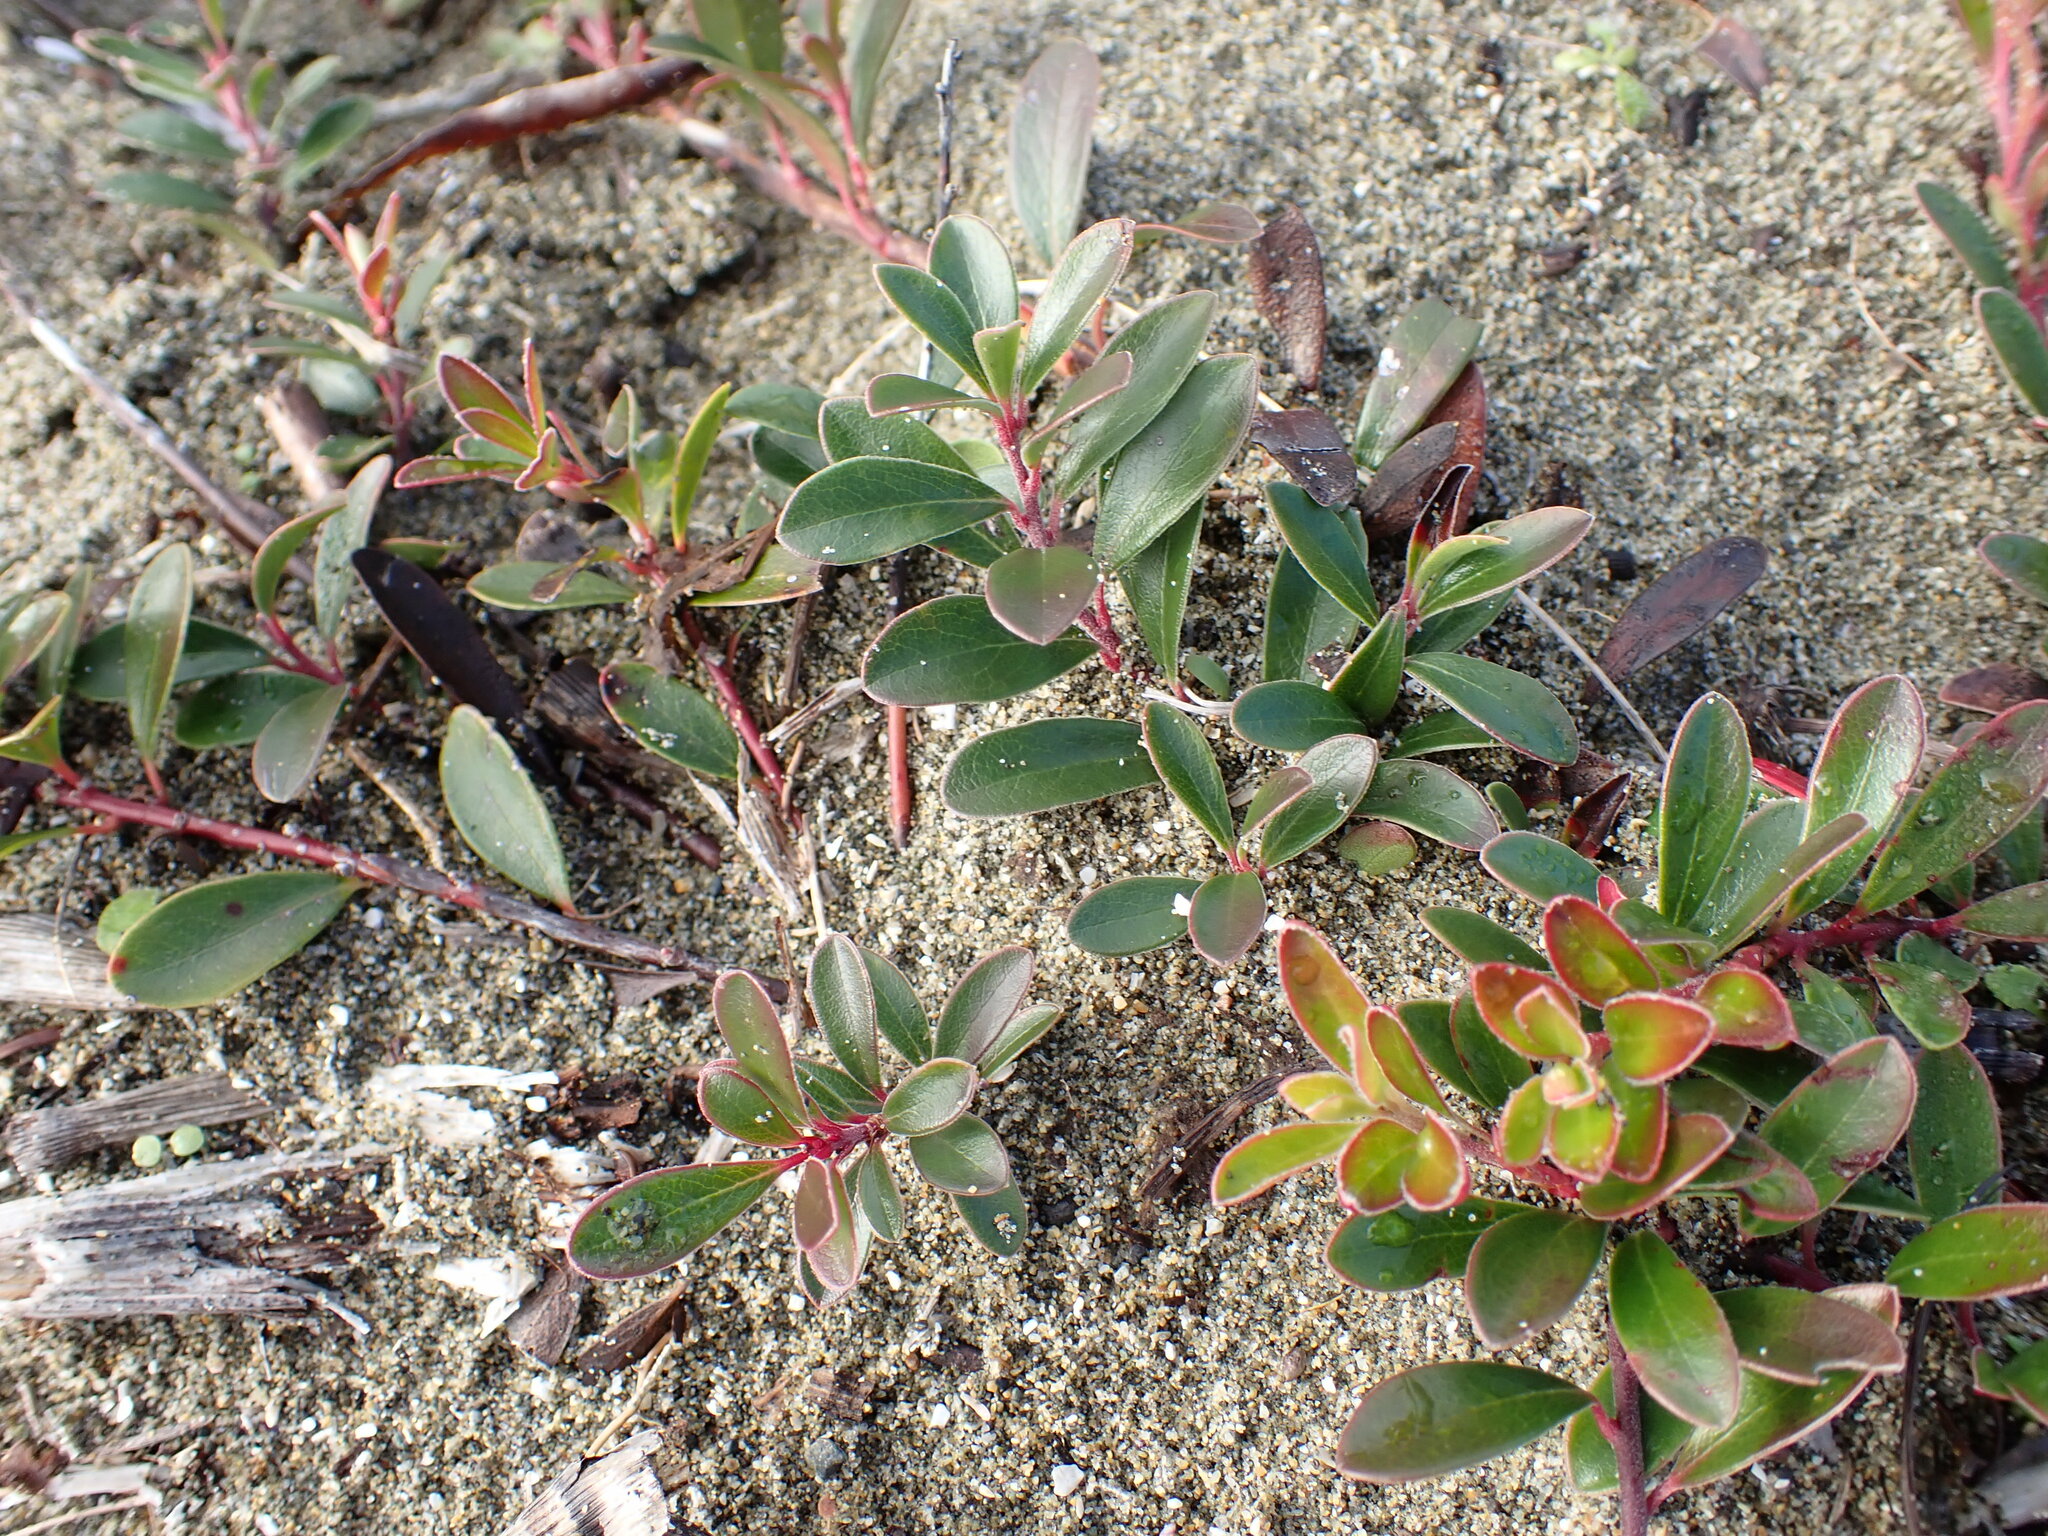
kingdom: Plantae
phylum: Tracheophyta
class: Magnoliopsida
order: Ericales
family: Ericaceae
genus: Arctostaphylos
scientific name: Arctostaphylos uva-ursi
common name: Bearberry
